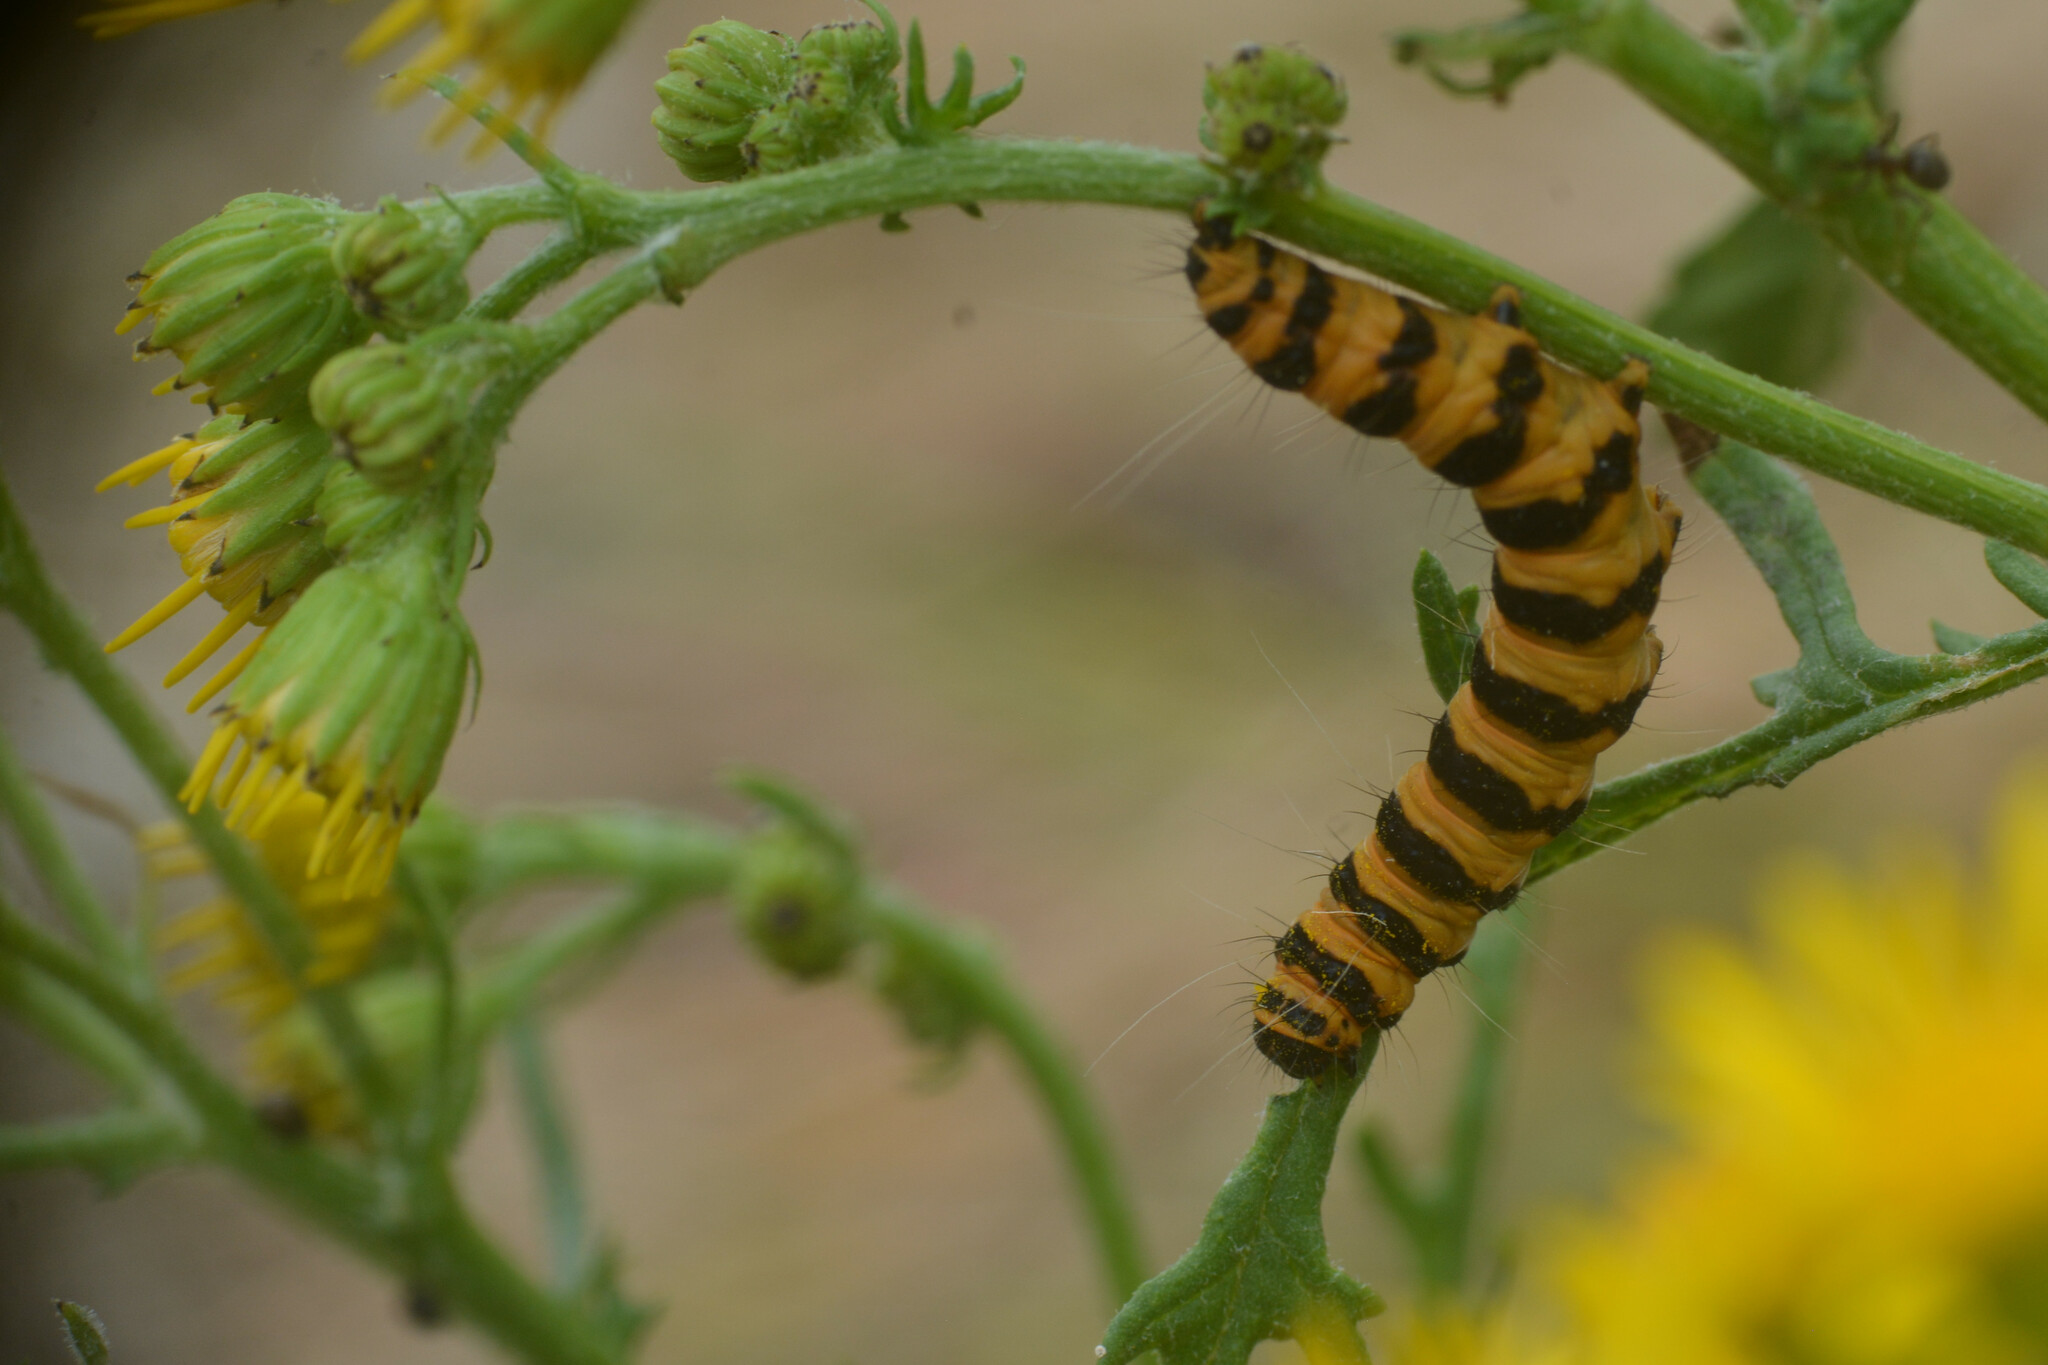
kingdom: Animalia
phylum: Arthropoda
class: Insecta
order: Lepidoptera
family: Erebidae
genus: Tyria
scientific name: Tyria jacobaeae
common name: Cinnabar
